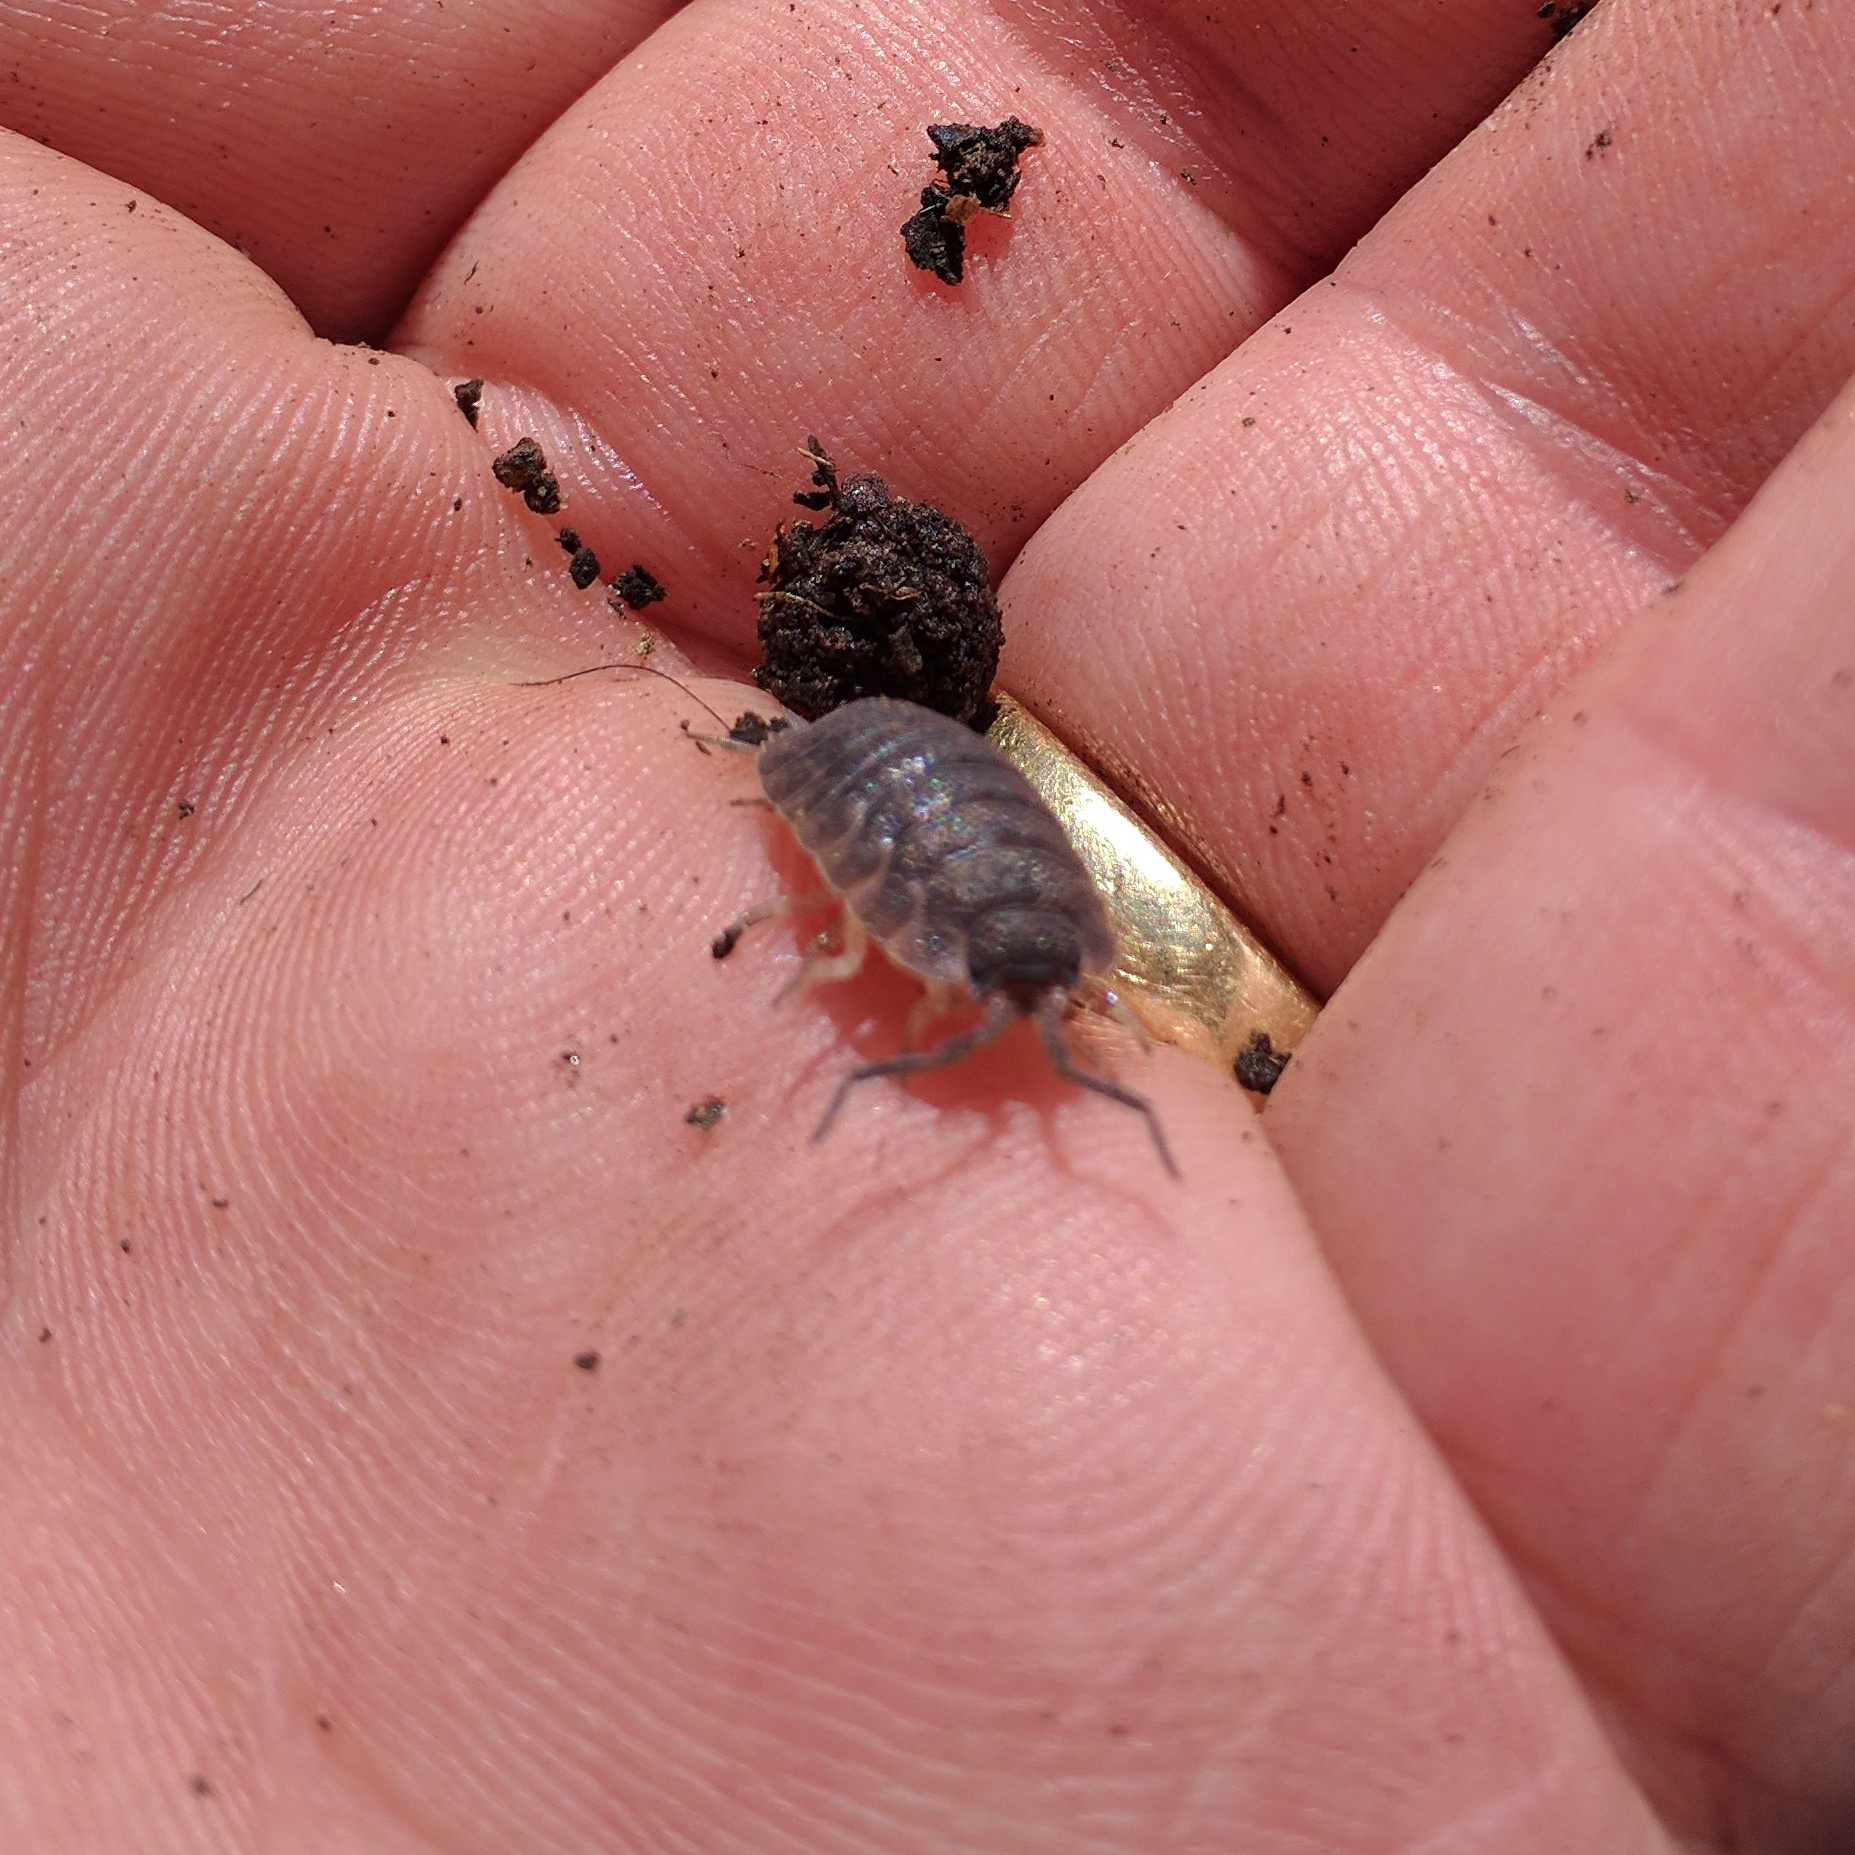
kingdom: Animalia
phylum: Arthropoda
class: Malacostraca
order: Isopoda
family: Porcellionidae
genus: Porcellio
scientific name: Porcellio scaber
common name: Common rough woodlouse
